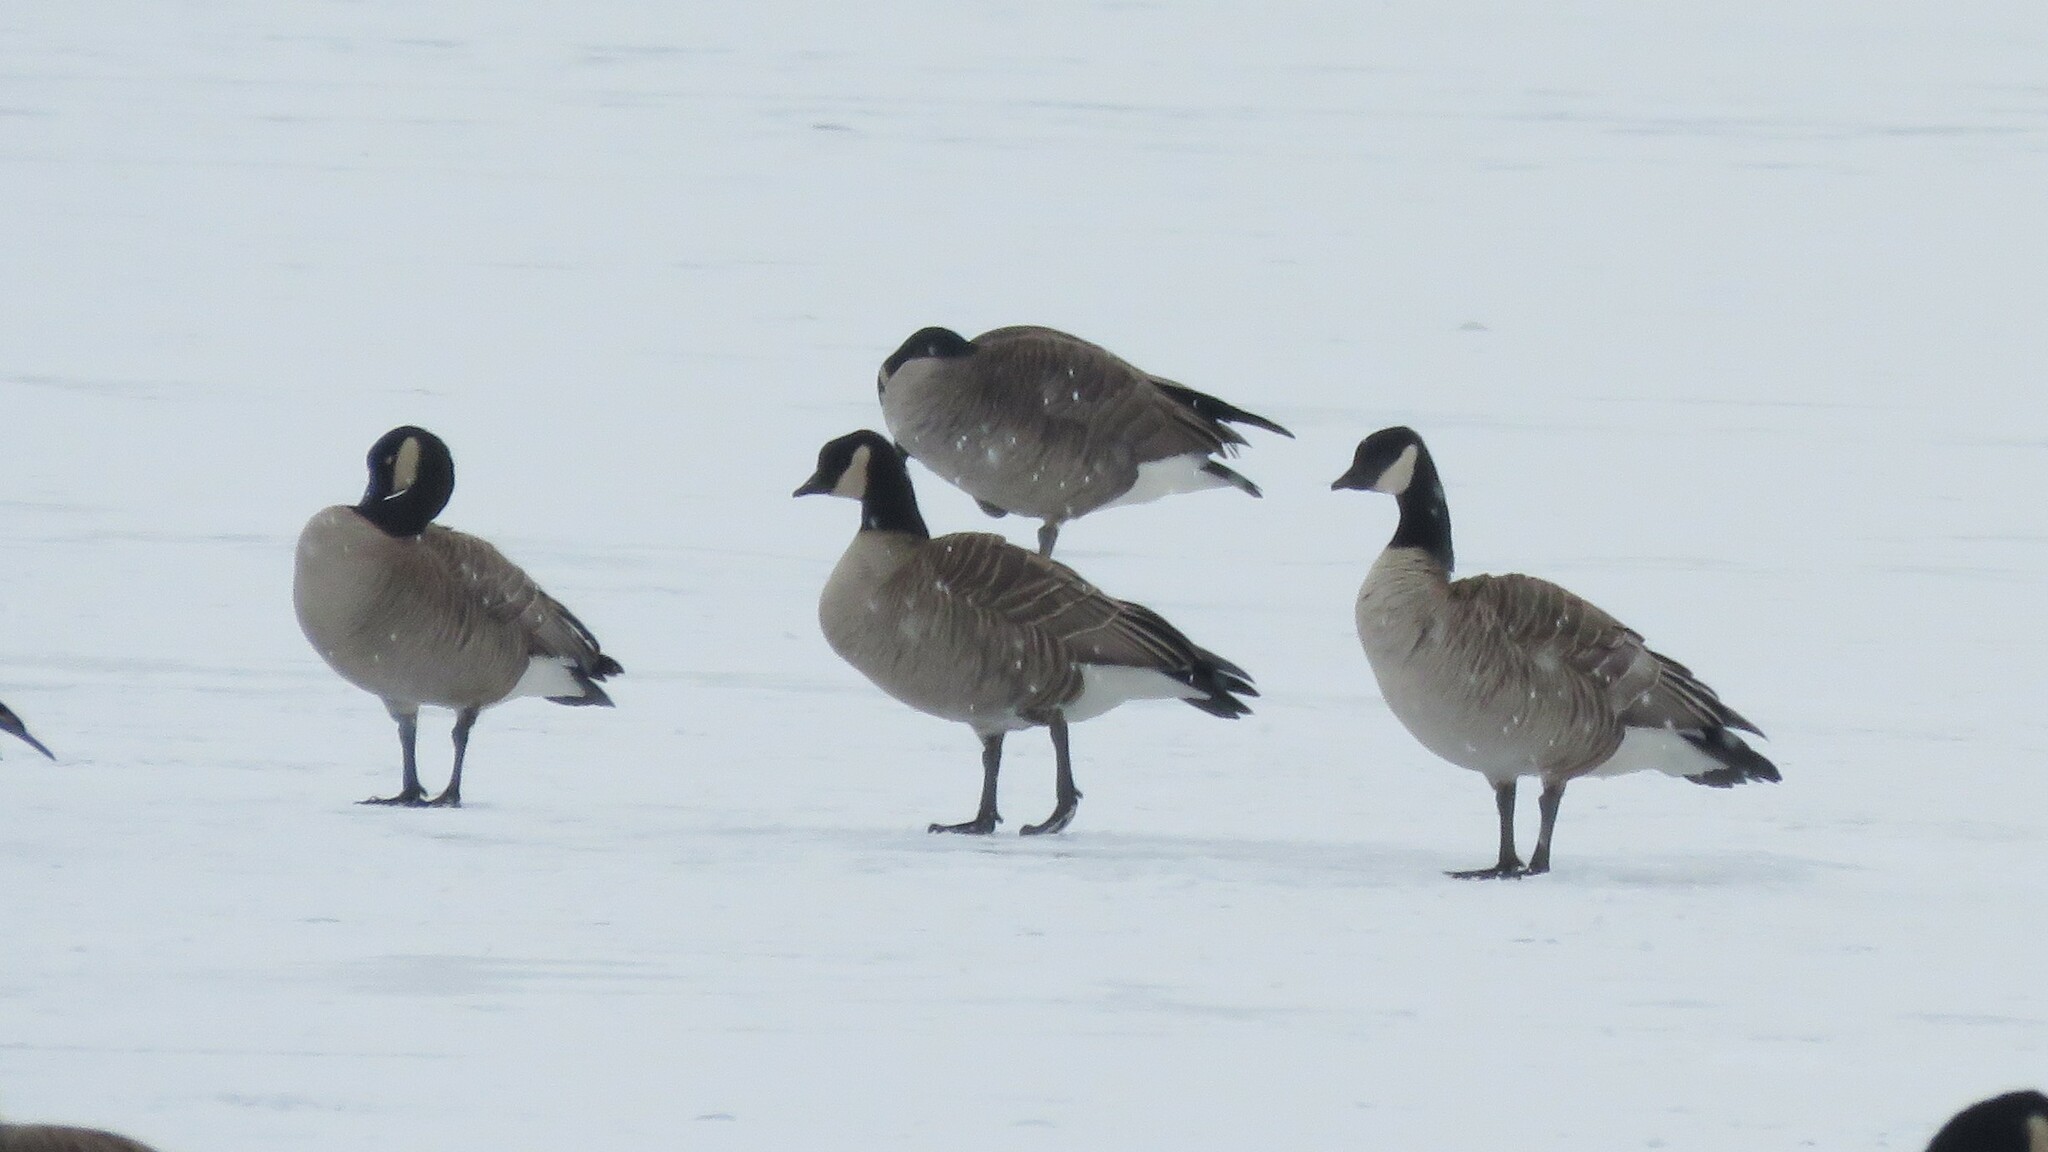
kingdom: Animalia
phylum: Chordata
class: Aves
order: Anseriformes
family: Anatidae
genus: Branta
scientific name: Branta hutchinsii
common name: Cackling goose
